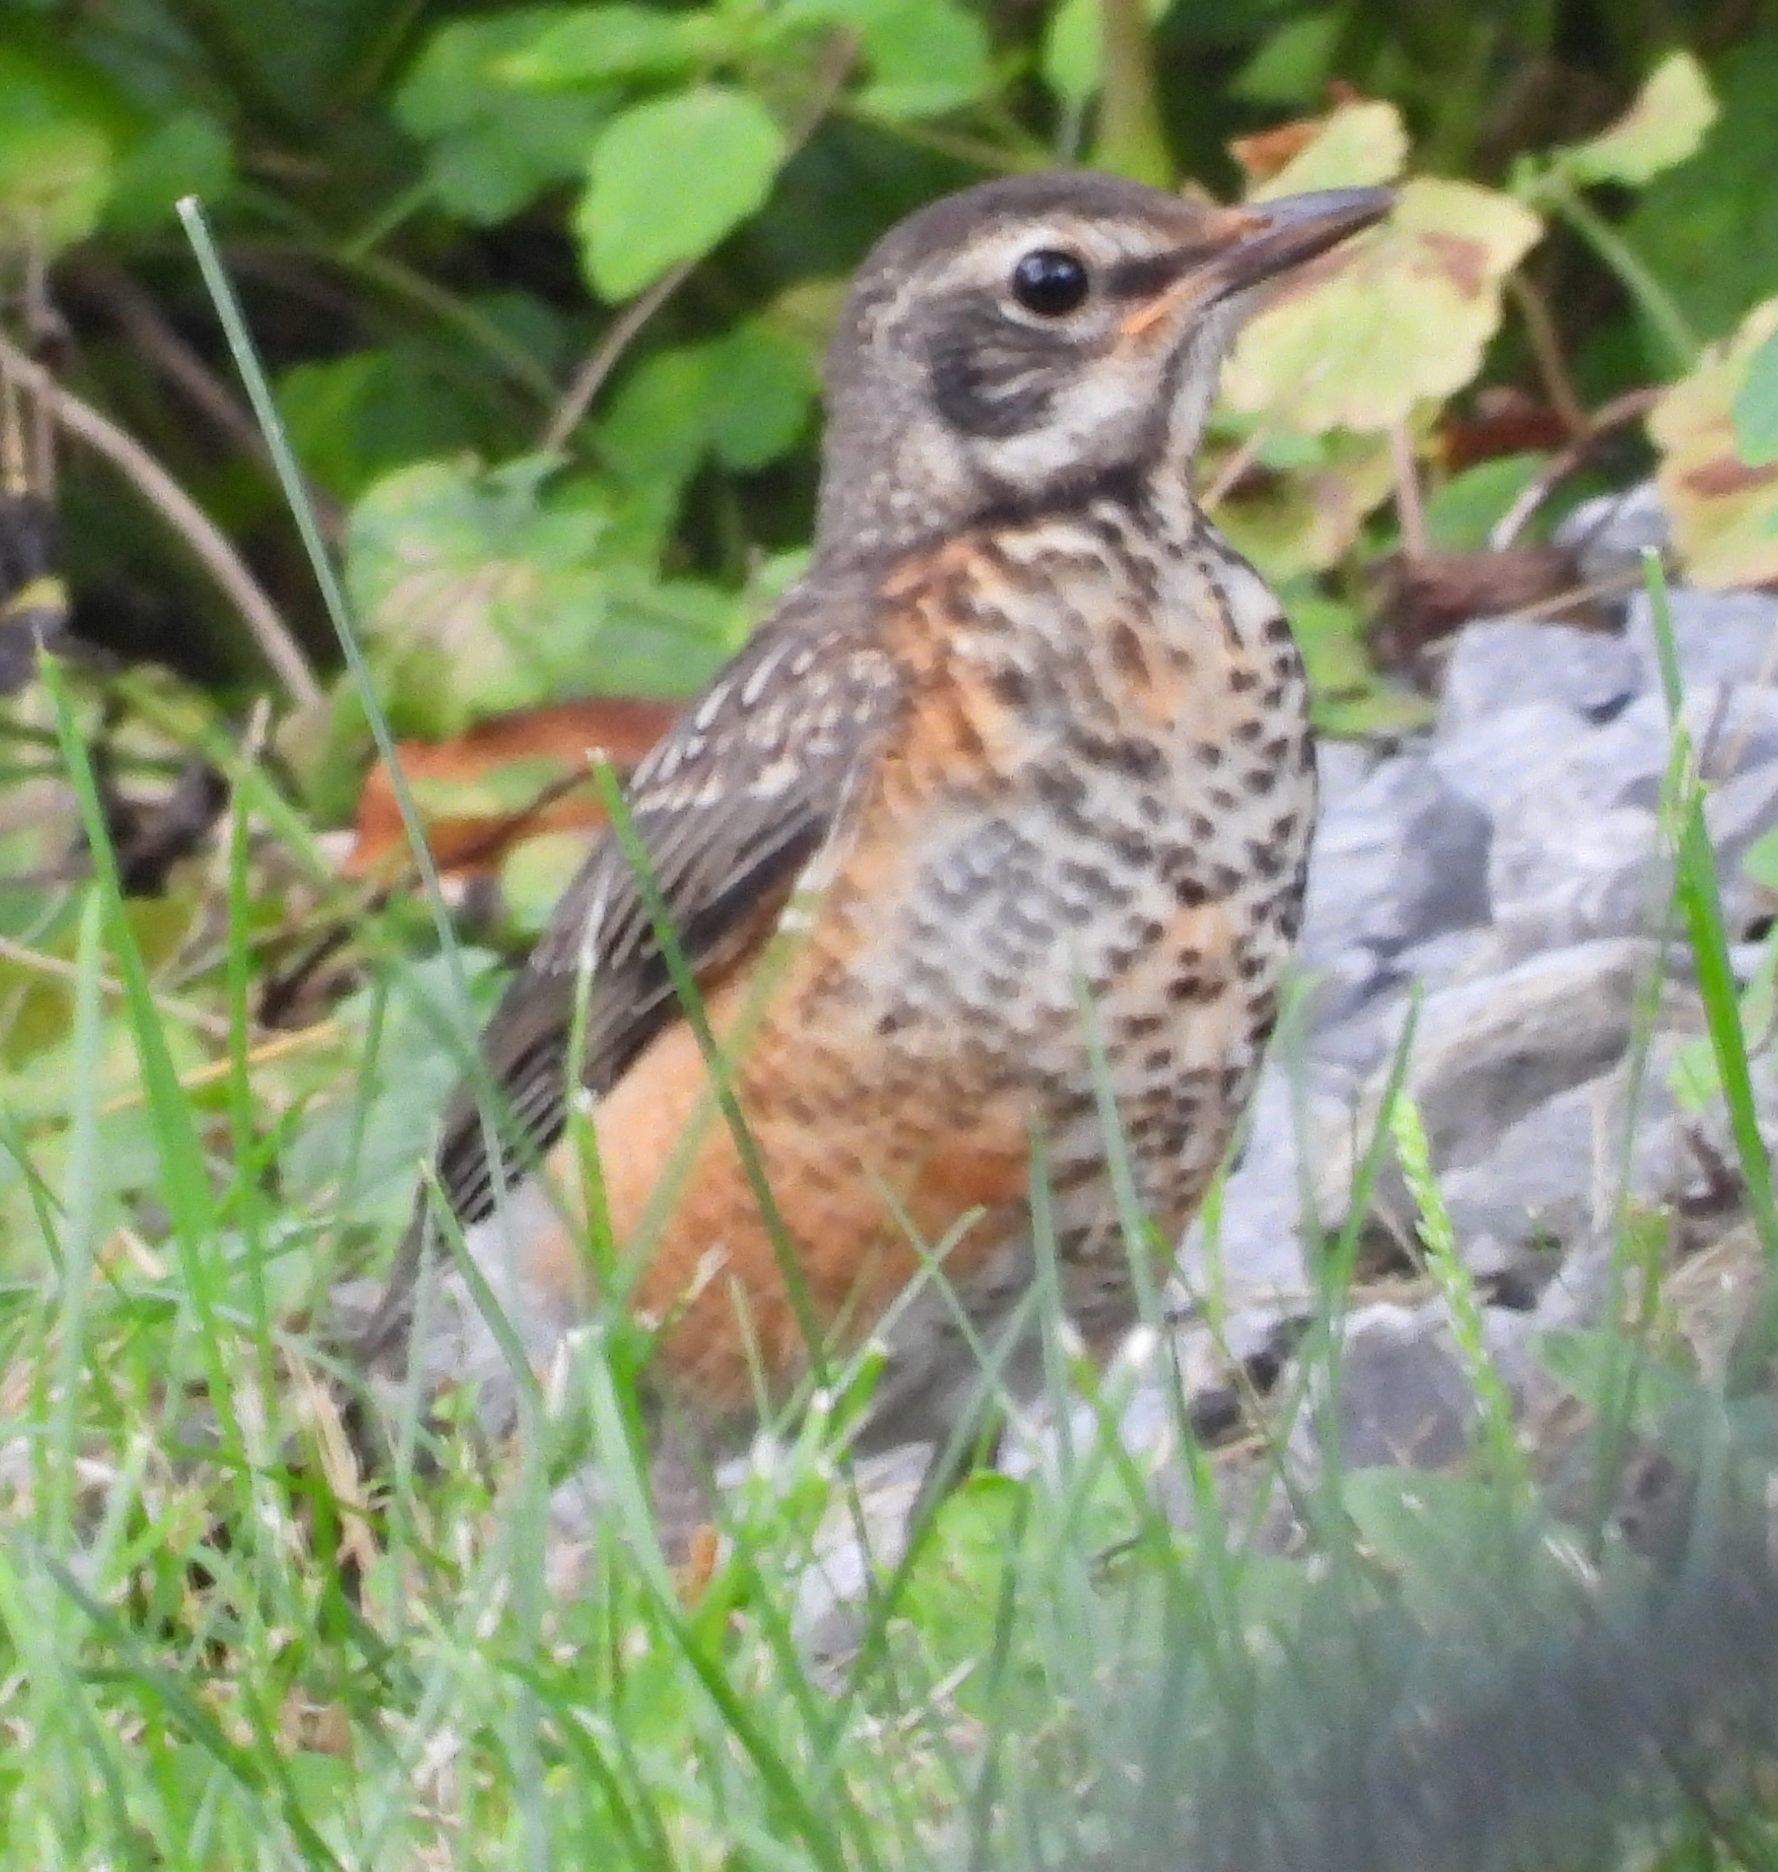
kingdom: Animalia
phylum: Chordata
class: Aves
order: Passeriformes
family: Turdidae
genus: Turdus
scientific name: Turdus migratorius
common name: American robin
